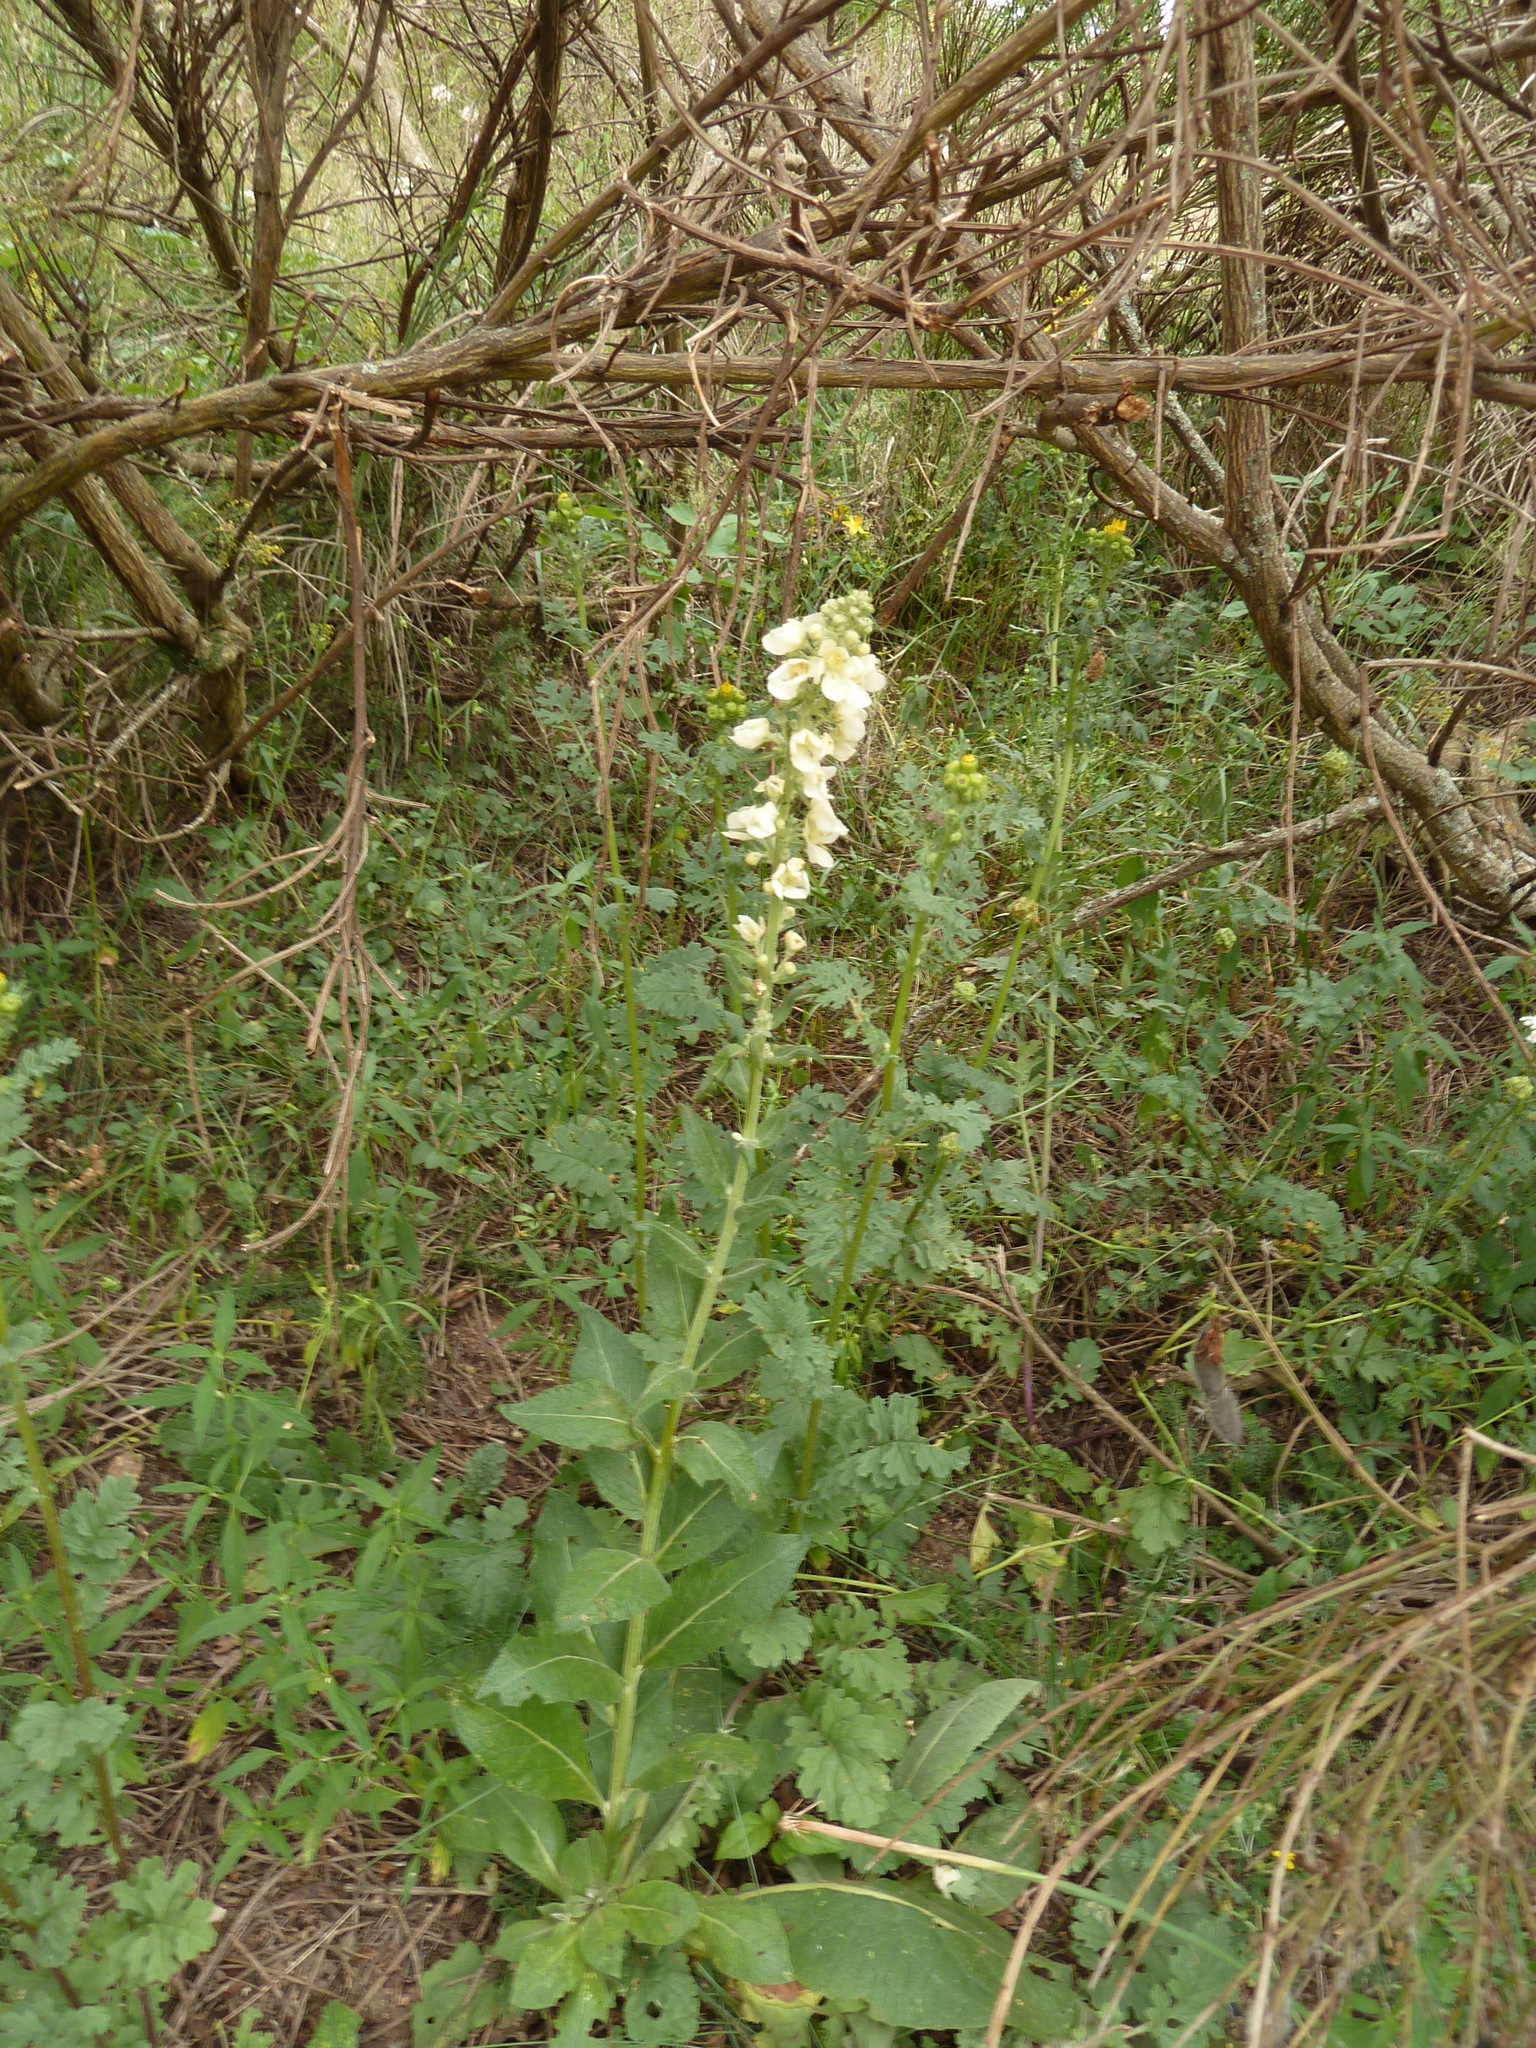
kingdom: Plantae
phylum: Tracheophyta
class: Magnoliopsida
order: Lamiales
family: Scrophulariaceae
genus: Verbascum
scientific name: Verbascum lychnitis
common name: White mullein
